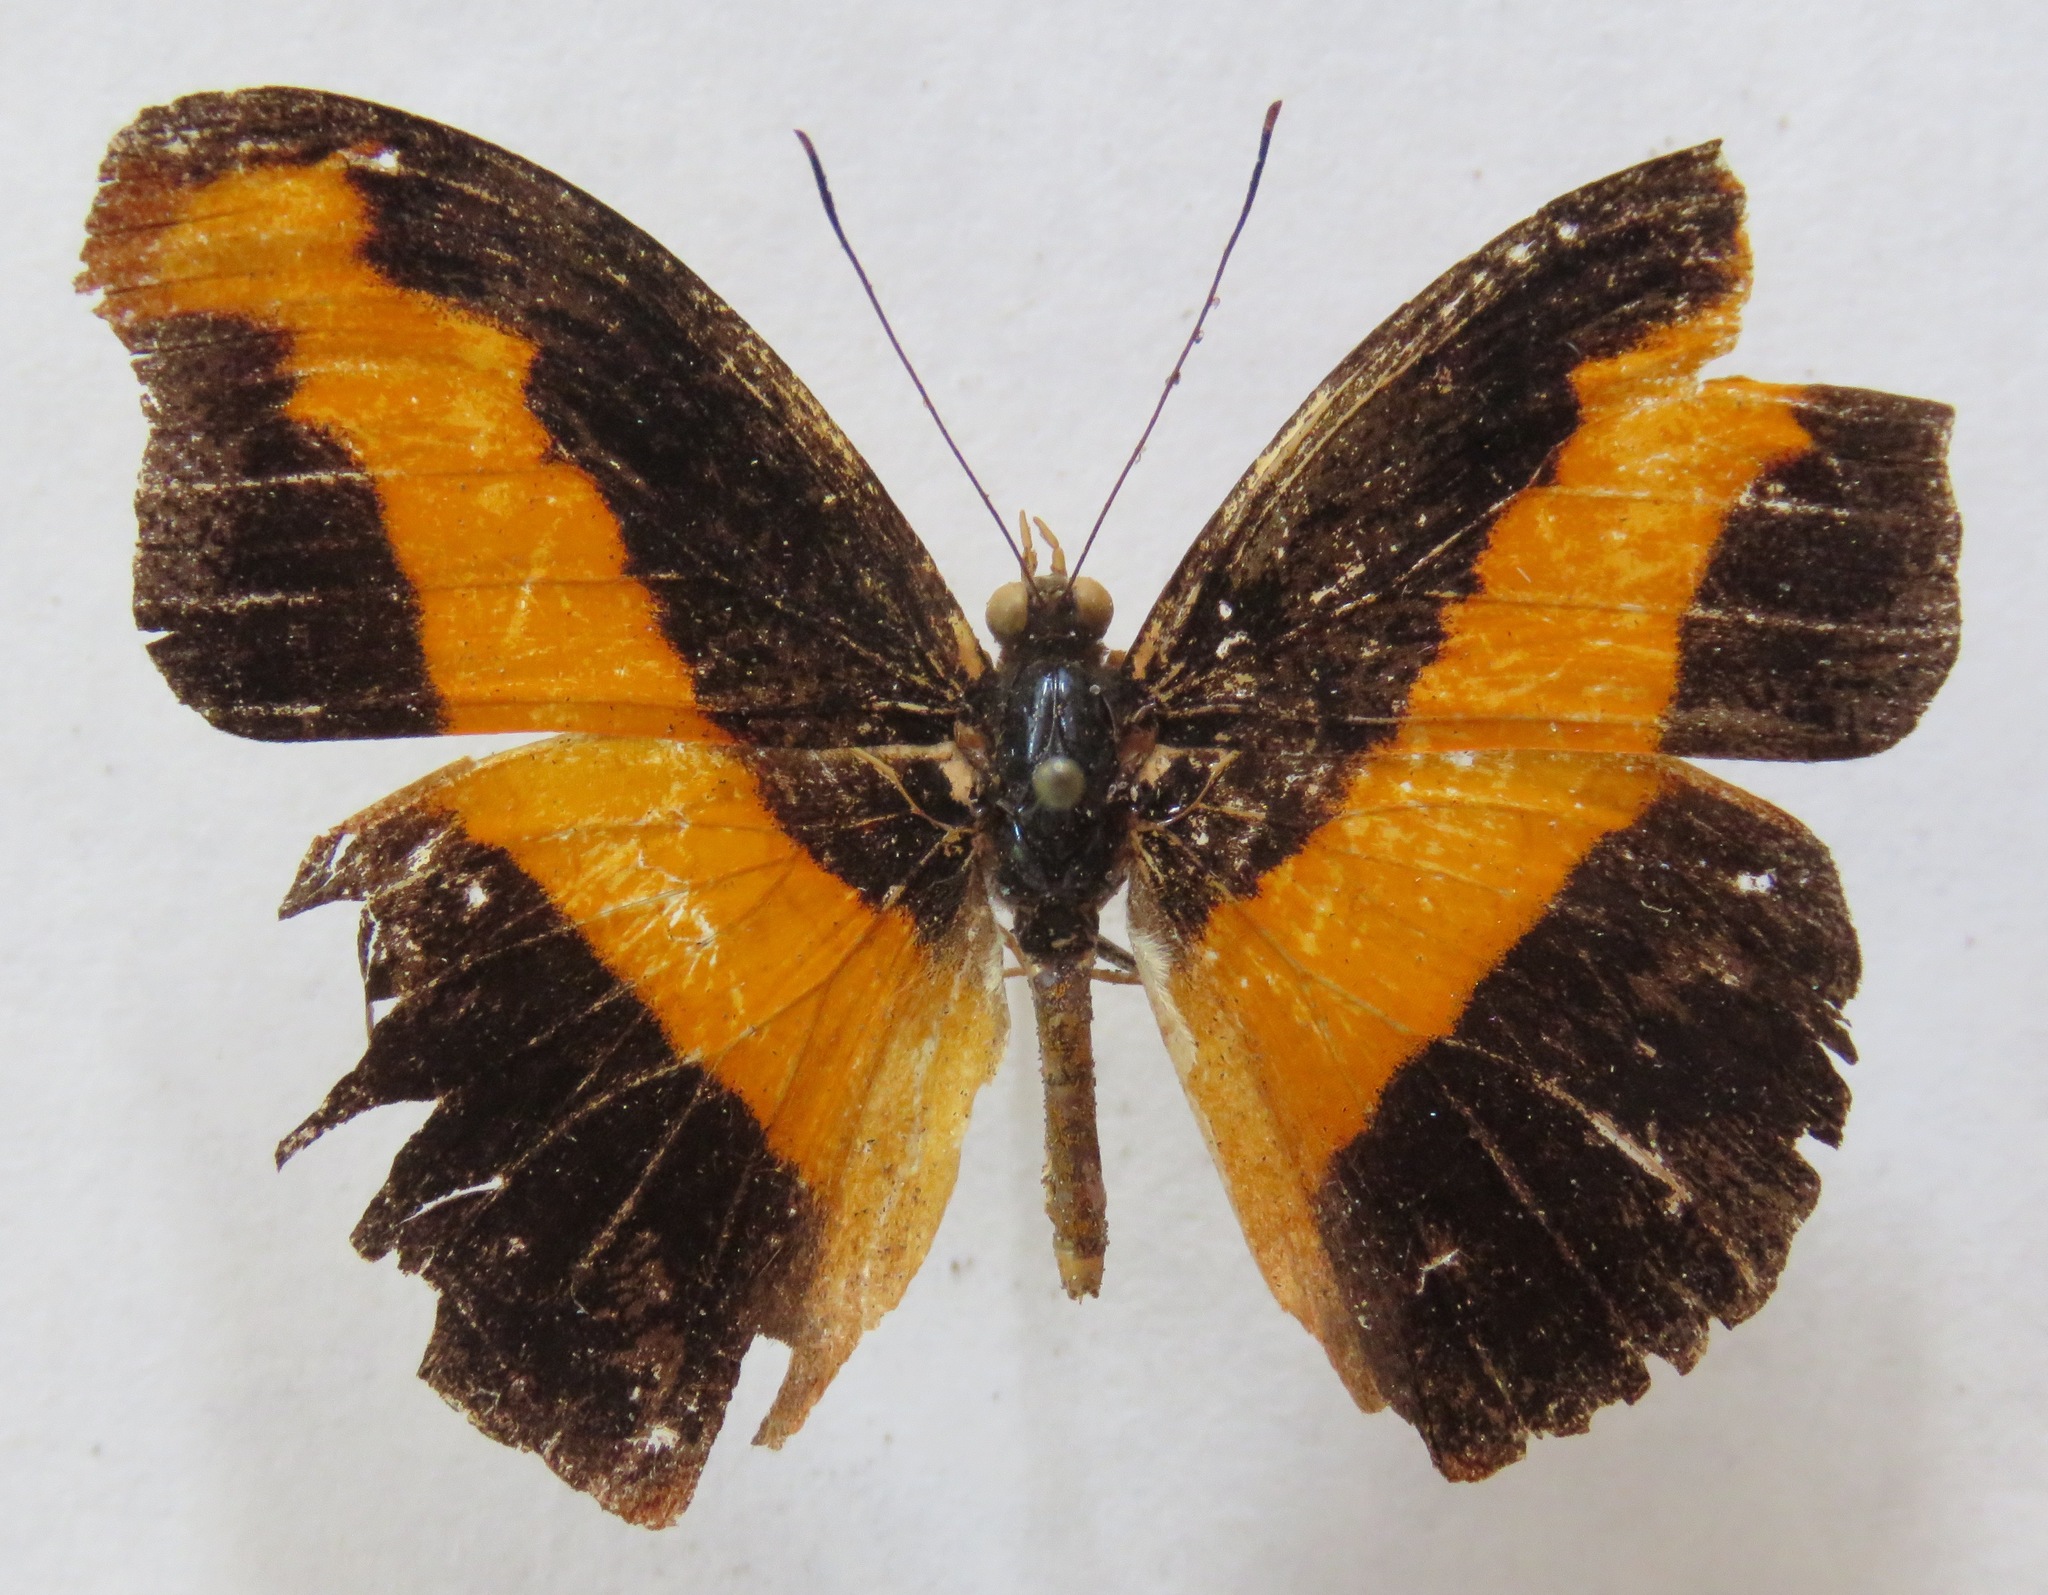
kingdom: Animalia
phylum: Arthropoda
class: Insecta
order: Lepidoptera
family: Nymphalidae
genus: Catonephele
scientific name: Catonephele mexicana
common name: Guatemalan catone
